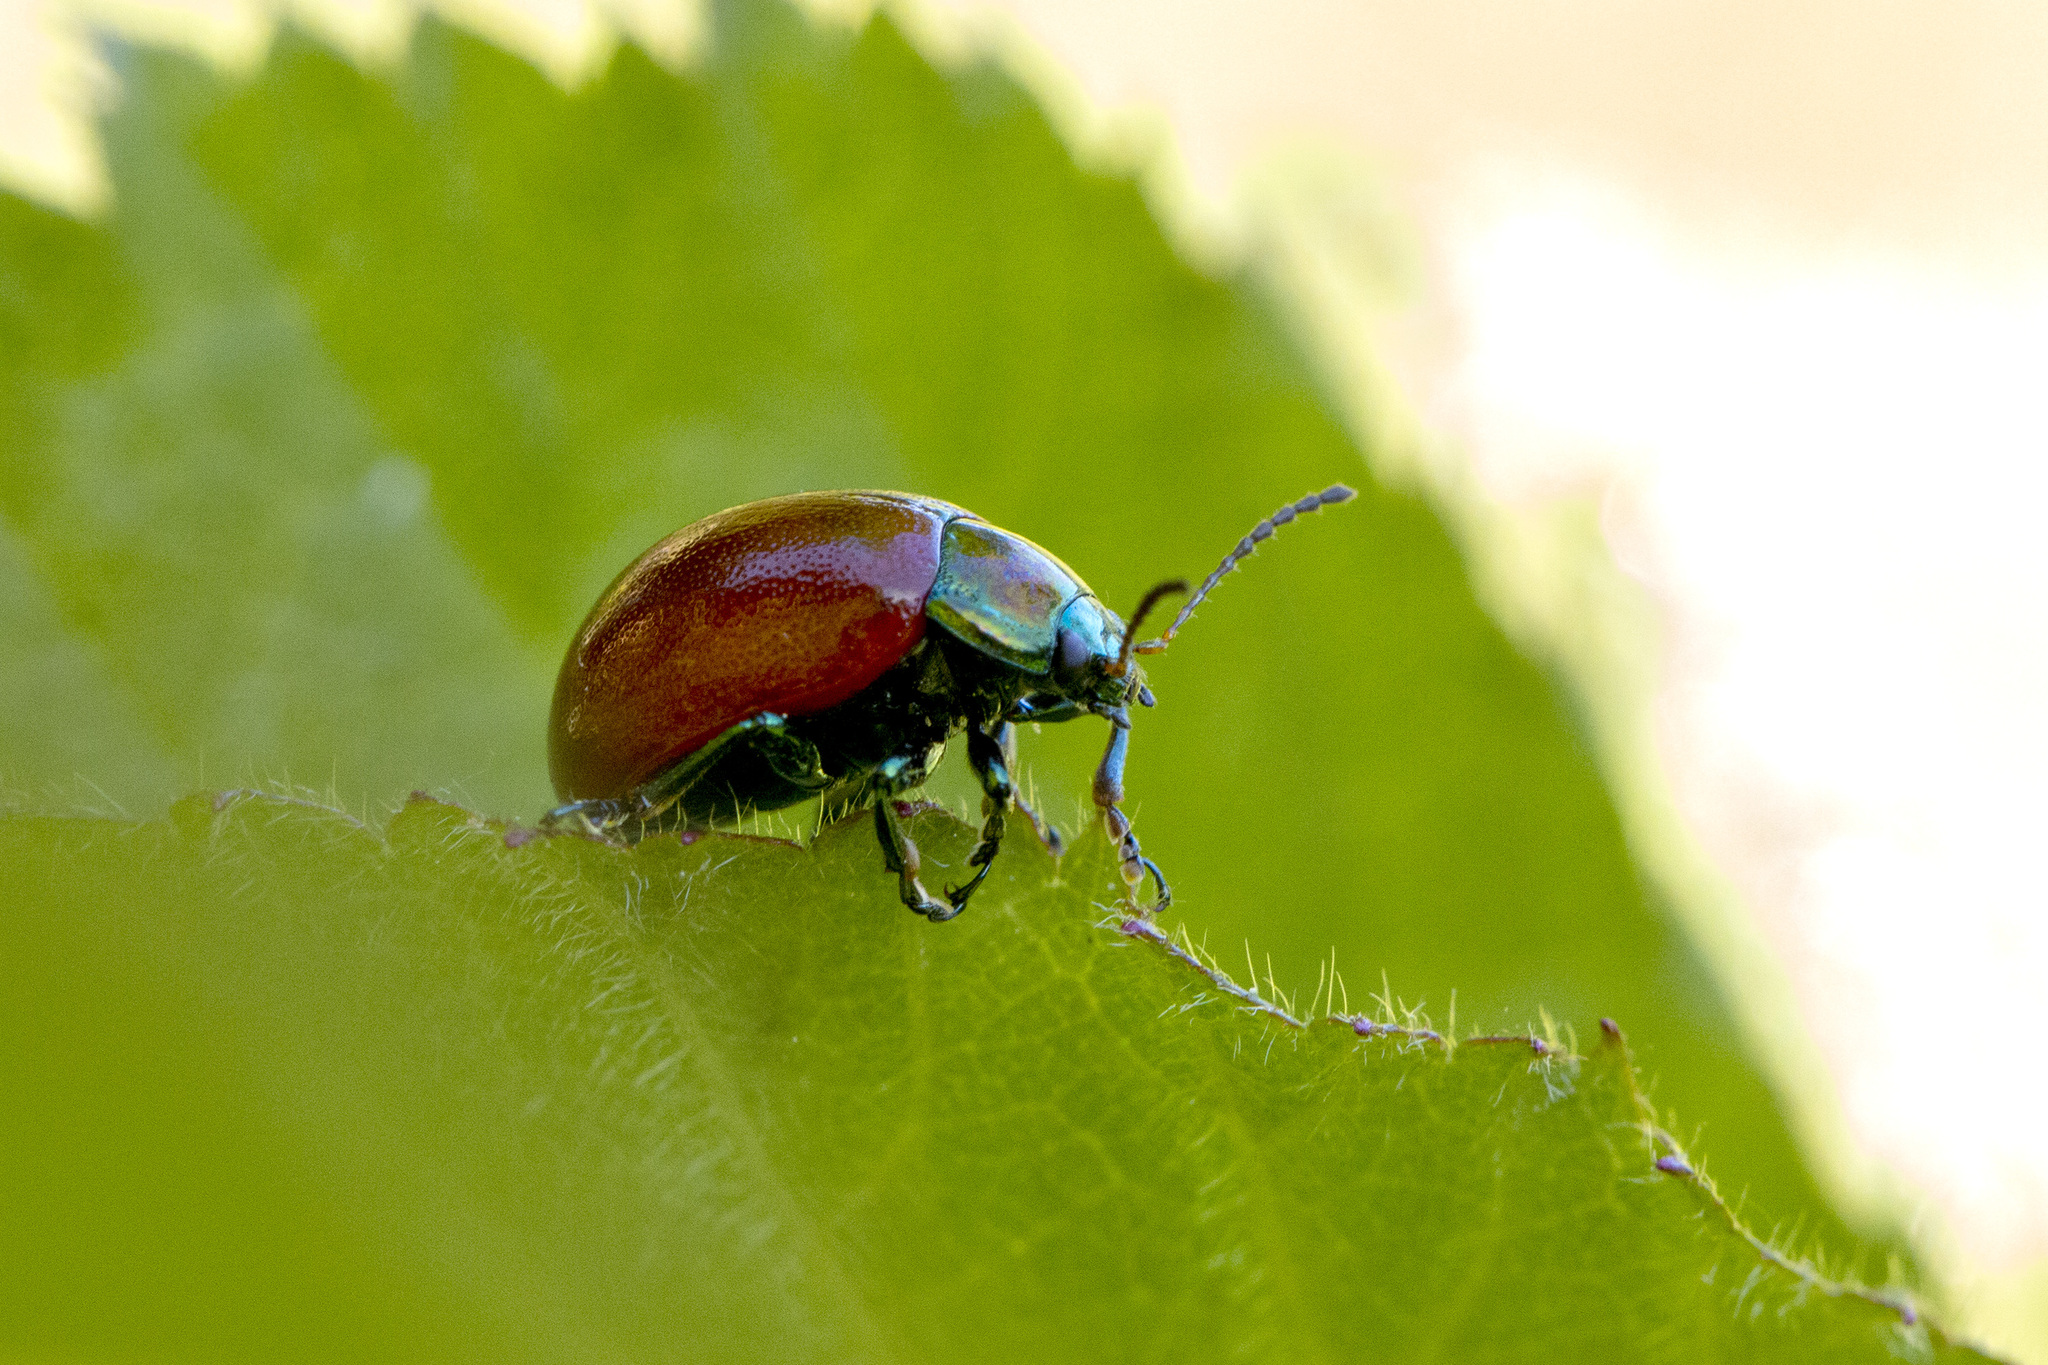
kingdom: Animalia
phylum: Arthropoda
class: Insecta
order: Coleoptera
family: Chrysomelidae
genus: Chrysomela
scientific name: Chrysomela polita
